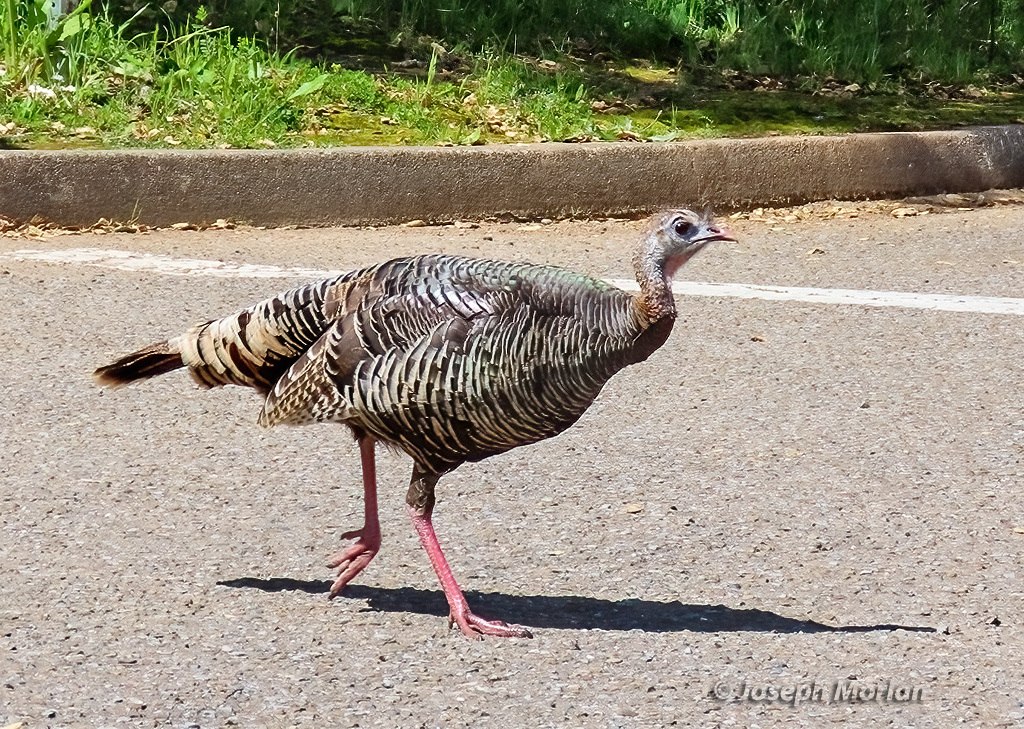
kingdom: Animalia
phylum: Chordata
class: Aves
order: Galliformes
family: Phasianidae
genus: Meleagris
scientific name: Meleagris gallopavo
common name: Wild turkey
